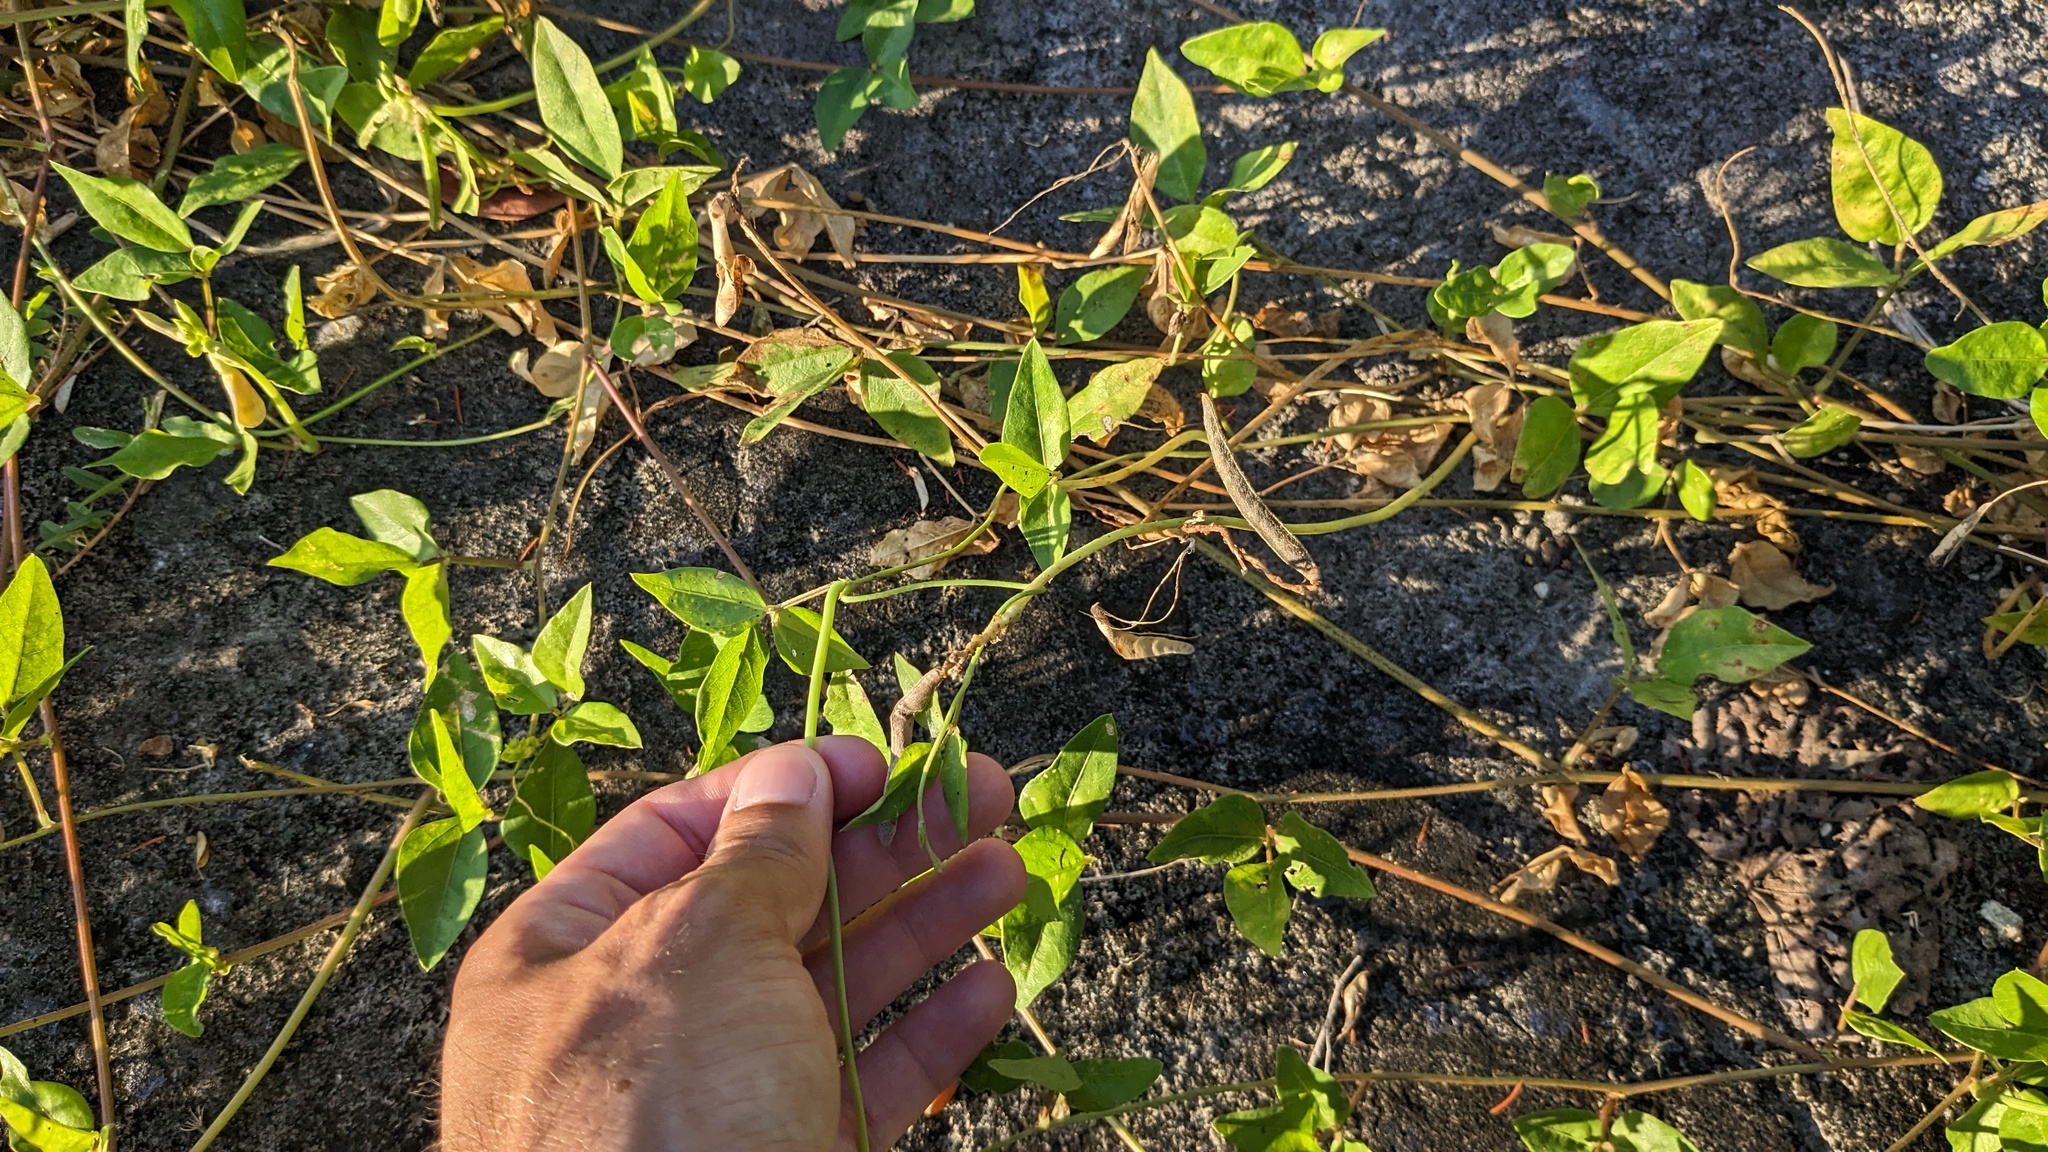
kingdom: Plantae
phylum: Tracheophyta
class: Magnoliopsida
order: Fabales
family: Fabaceae
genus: Vigna
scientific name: Vigna luteola
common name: Hairypod cowpea
